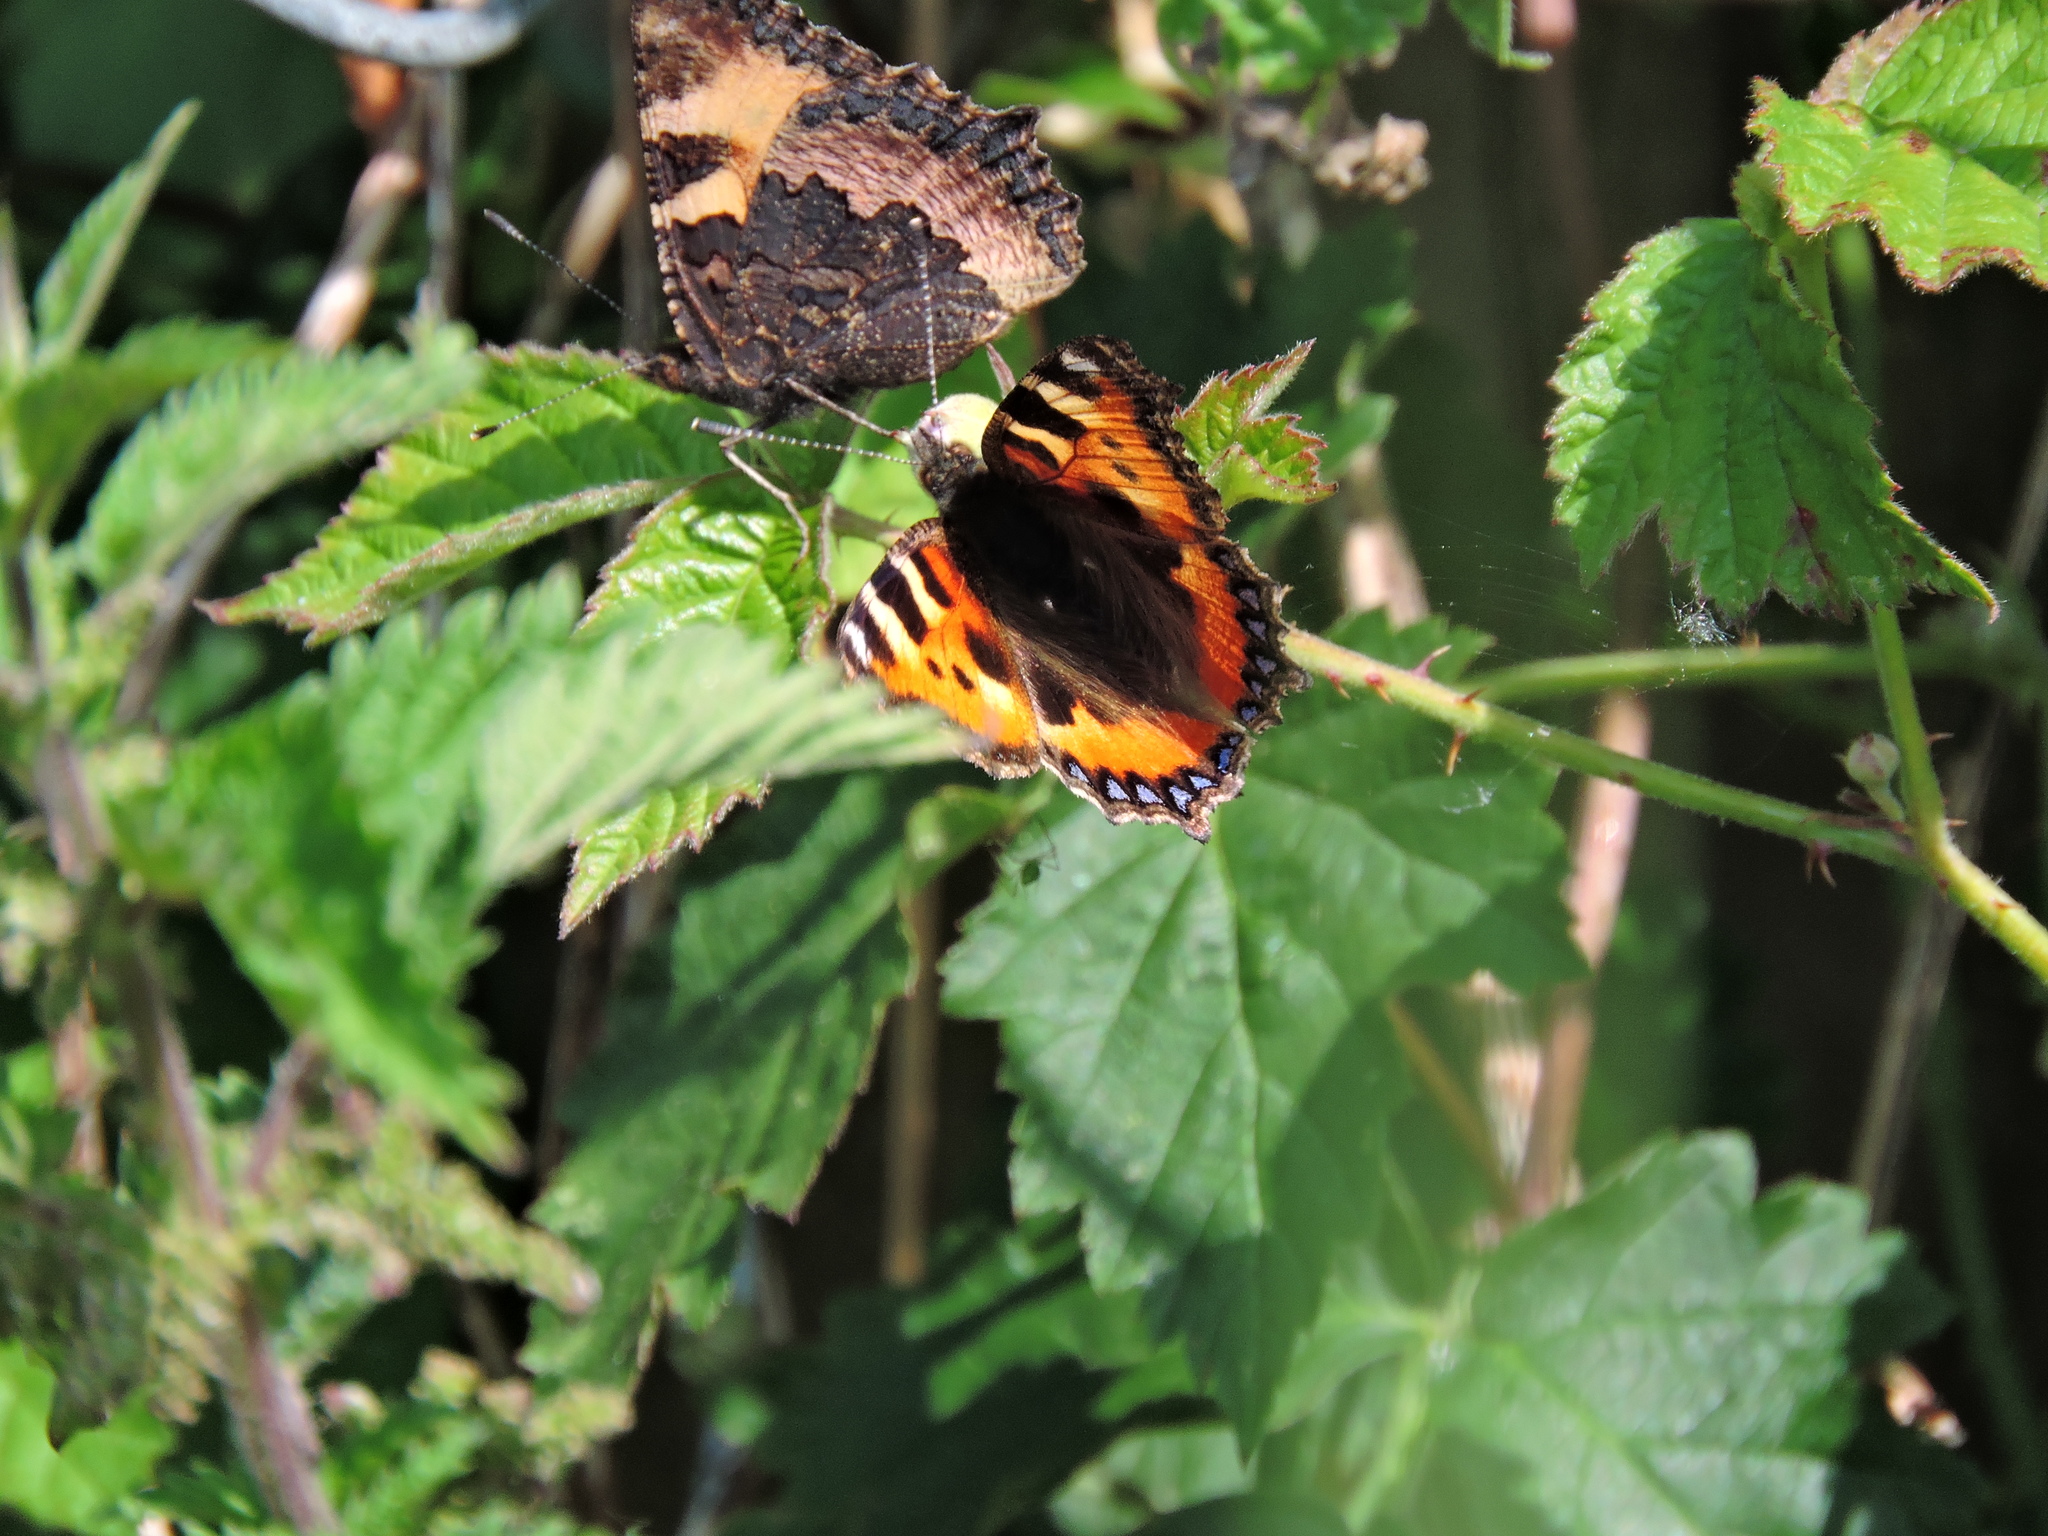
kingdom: Animalia
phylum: Arthropoda
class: Insecta
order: Lepidoptera
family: Nymphalidae
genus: Aglais
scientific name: Aglais urticae
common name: Small tortoiseshell
